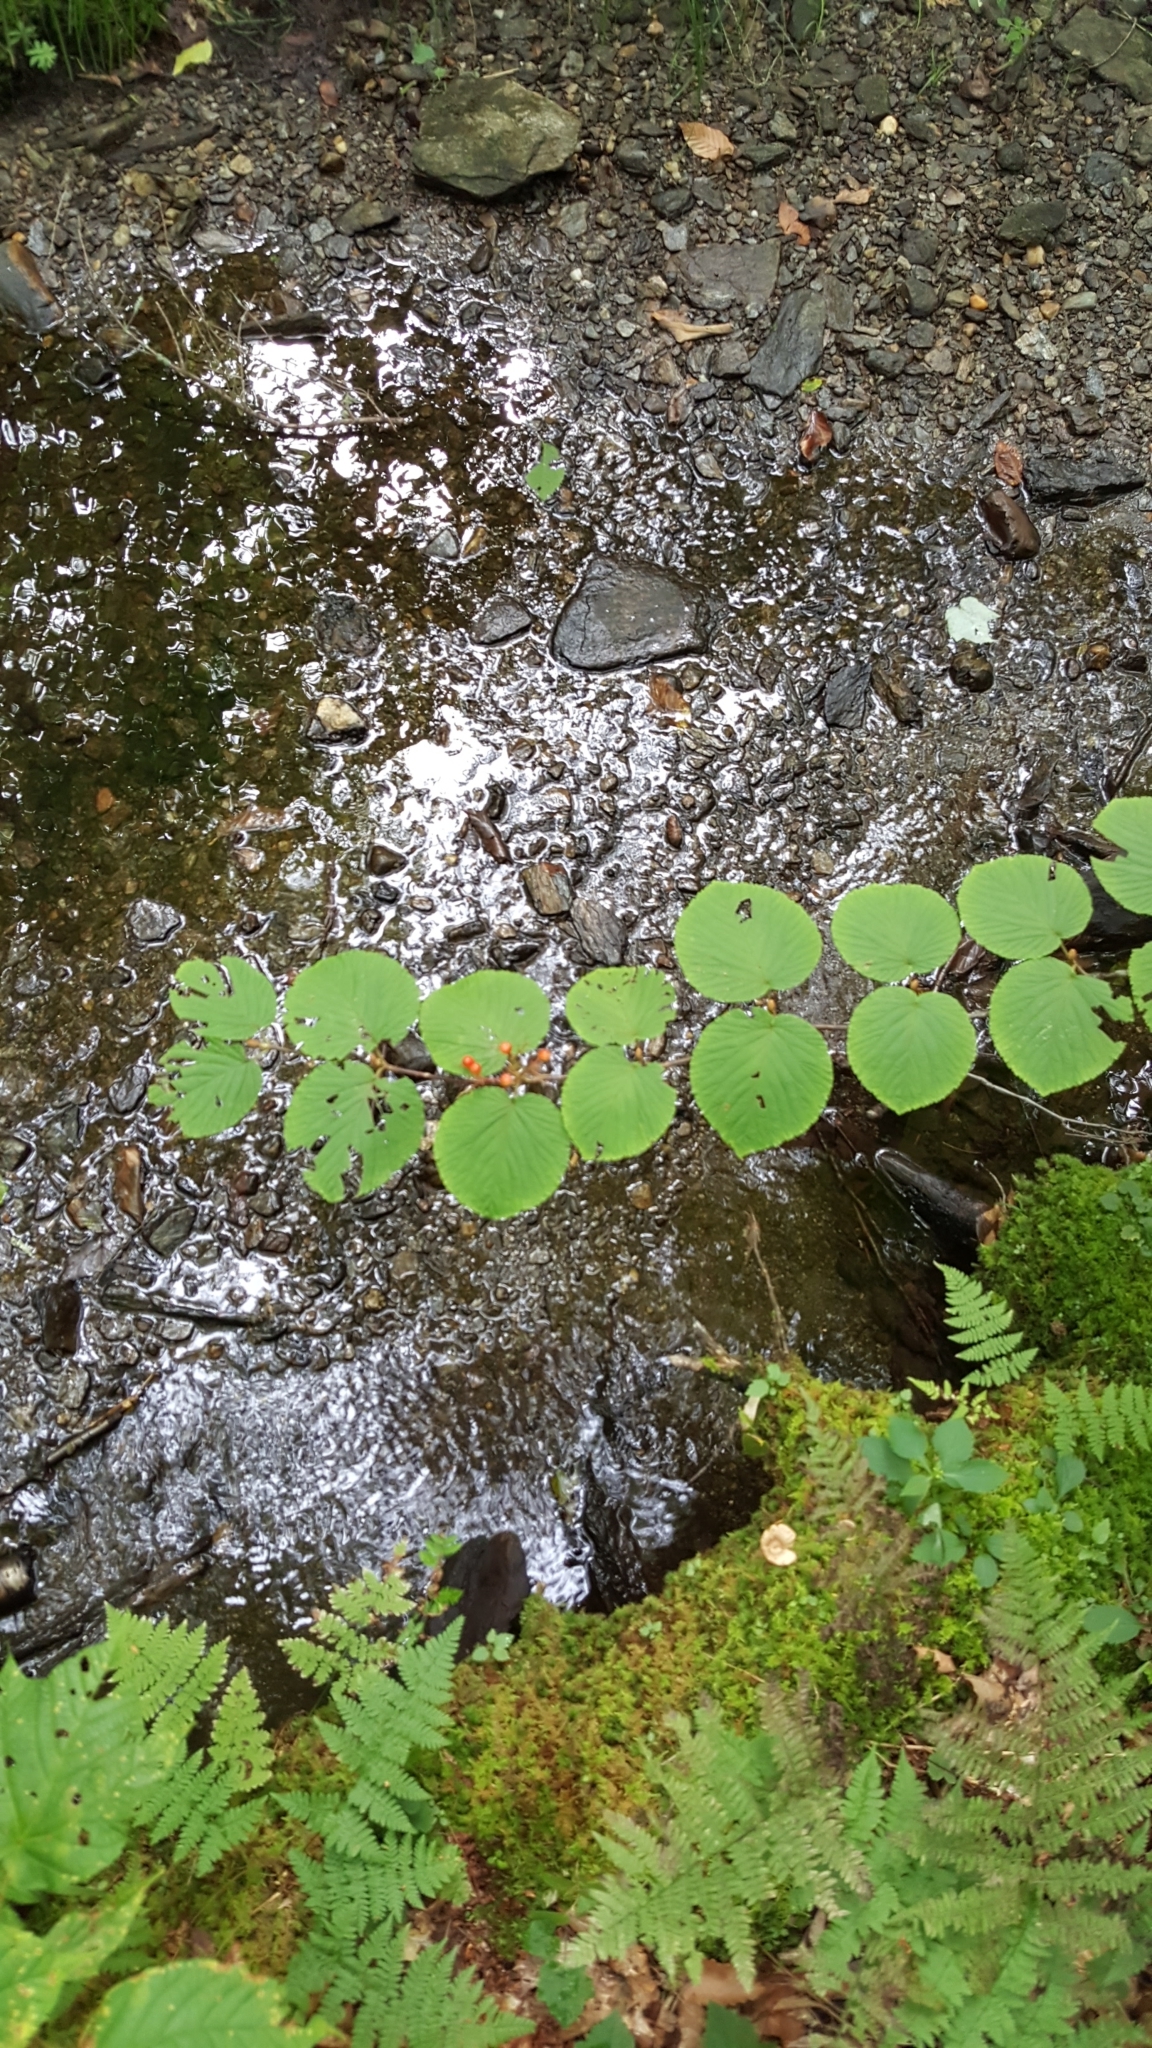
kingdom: Plantae
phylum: Tracheophyta
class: Magnoliopsida
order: Dipsacales
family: Viburnaceae
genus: Viburnum
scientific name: Viburnum lantanoides
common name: Hobblebush
